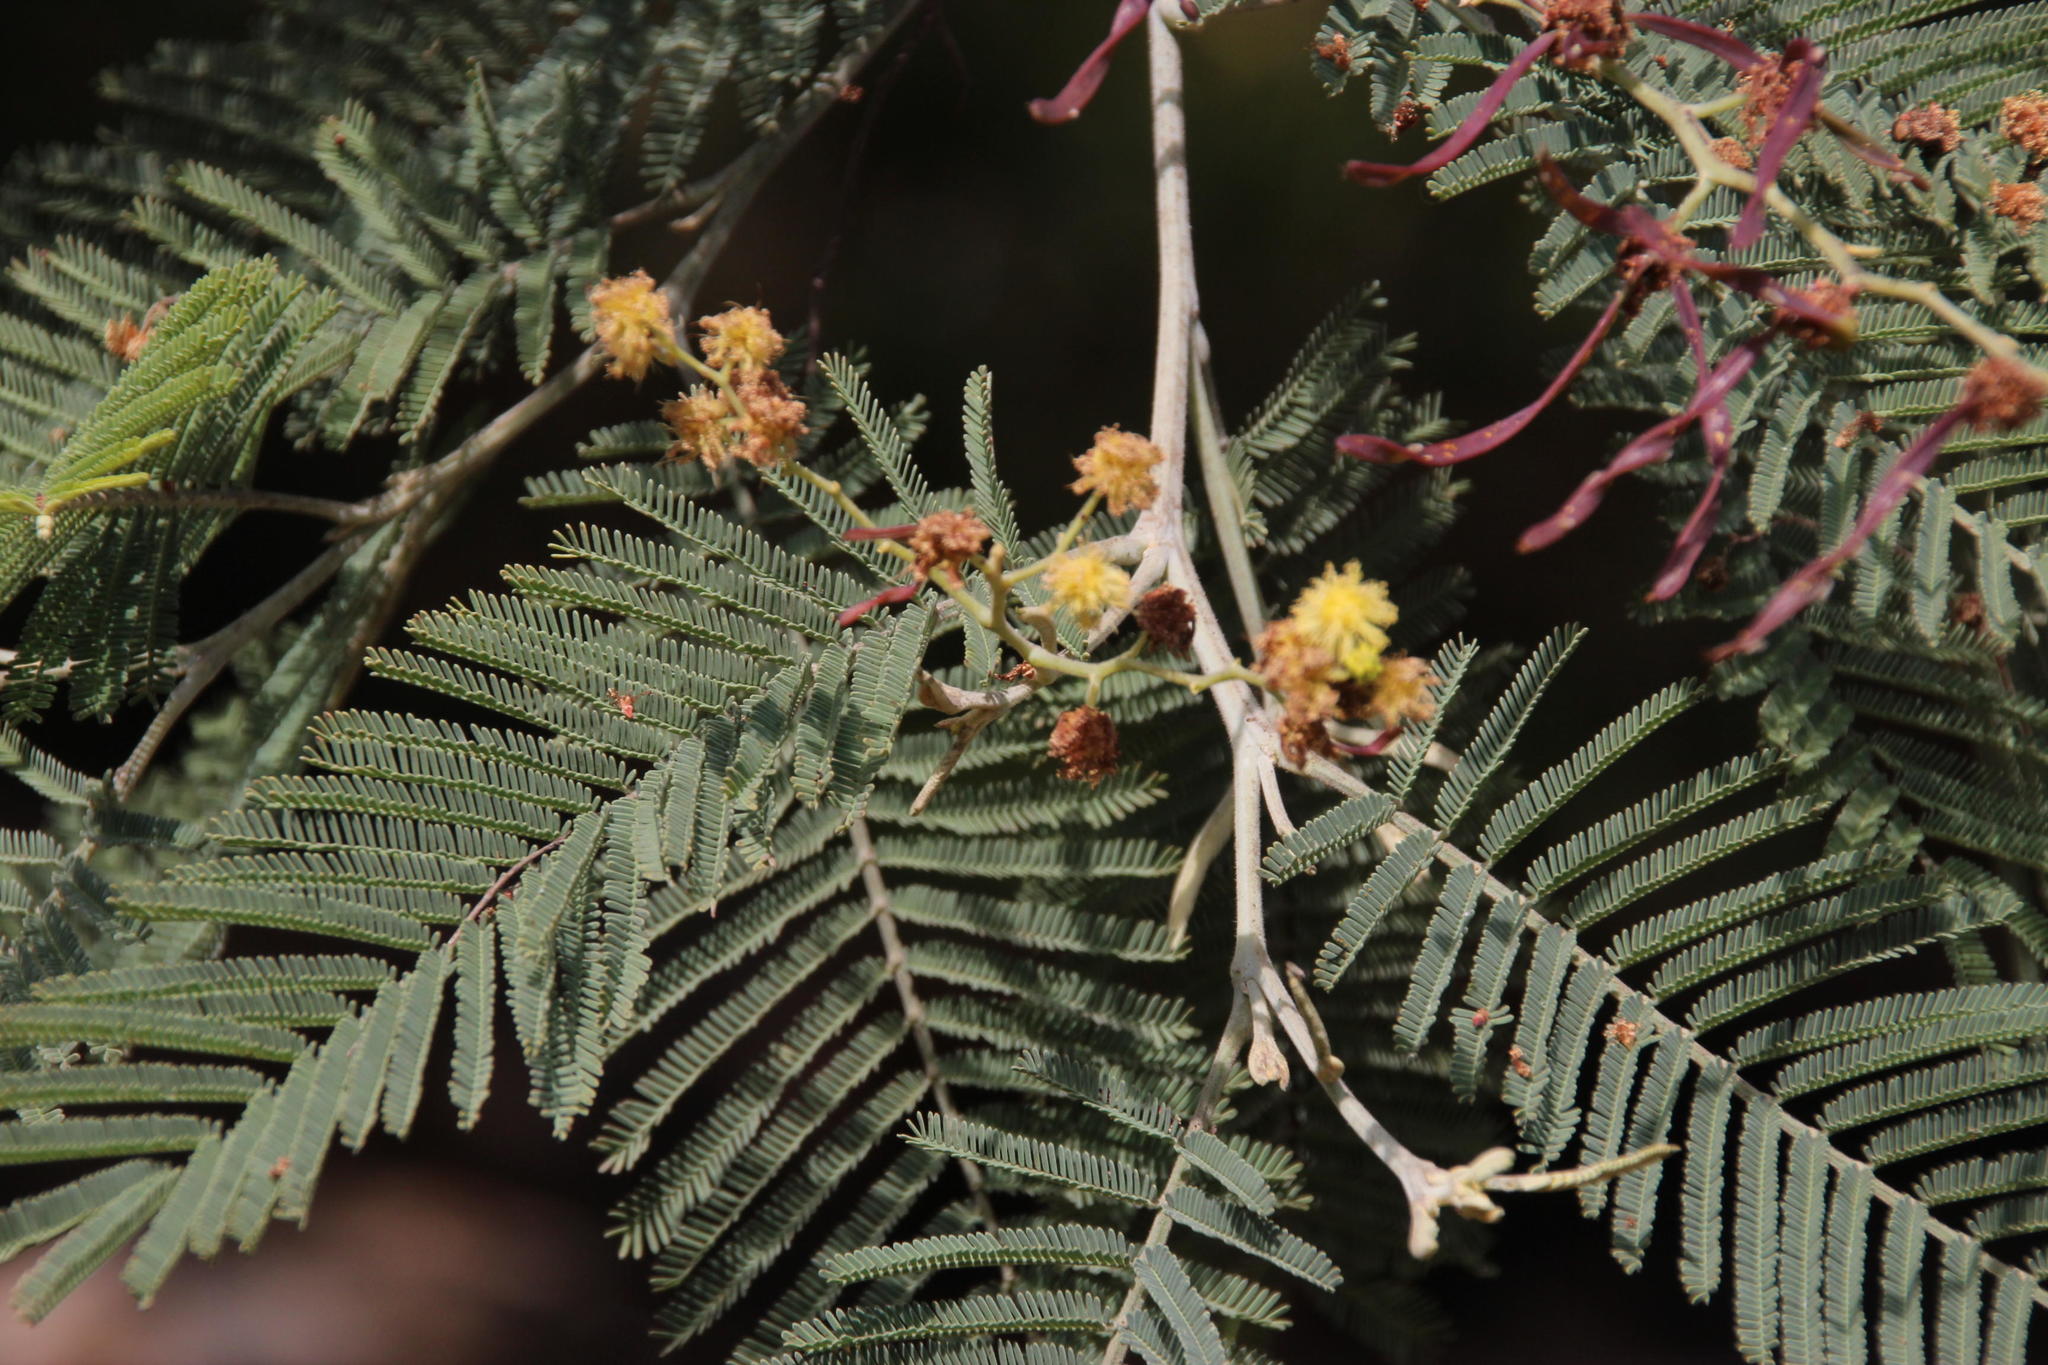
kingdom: Plantae
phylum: Tracheophyta
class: Magnoliopsida
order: Fabales
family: Fabaceae
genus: Acacia
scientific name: Acacia dealbata
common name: Silver wattle
